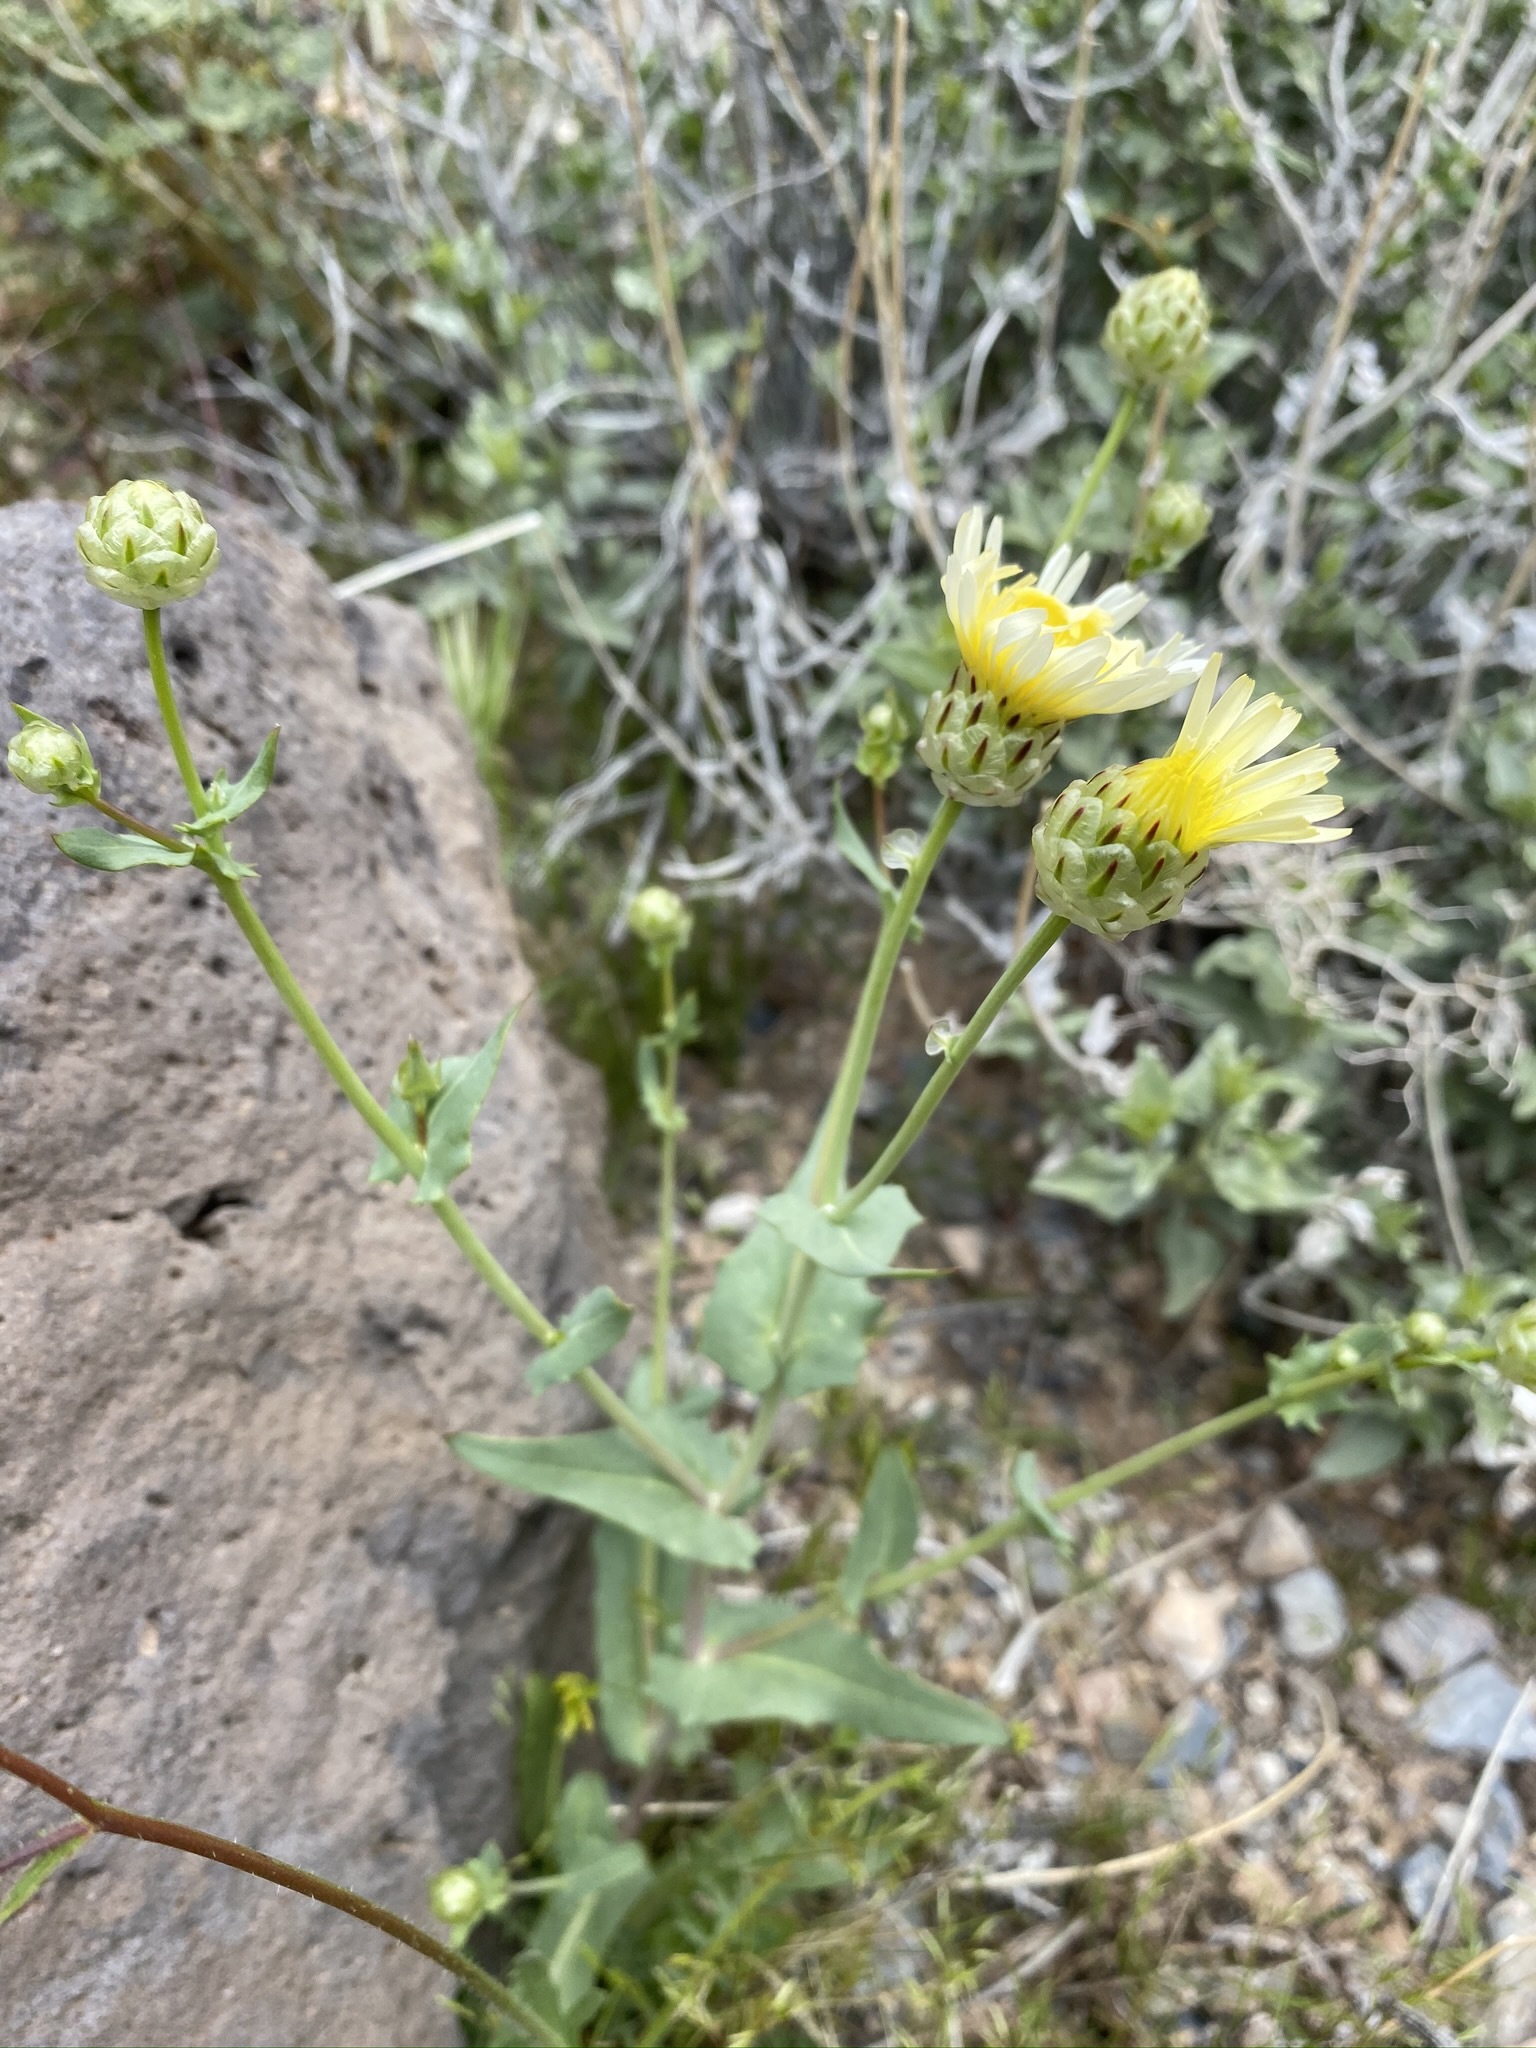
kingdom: Plantae
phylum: Tracheophyta
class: Magnoliopsida
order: Asterales
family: Asteraceae
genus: Malacothrix
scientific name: Malacothrix coulteri
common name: Snake's-head
